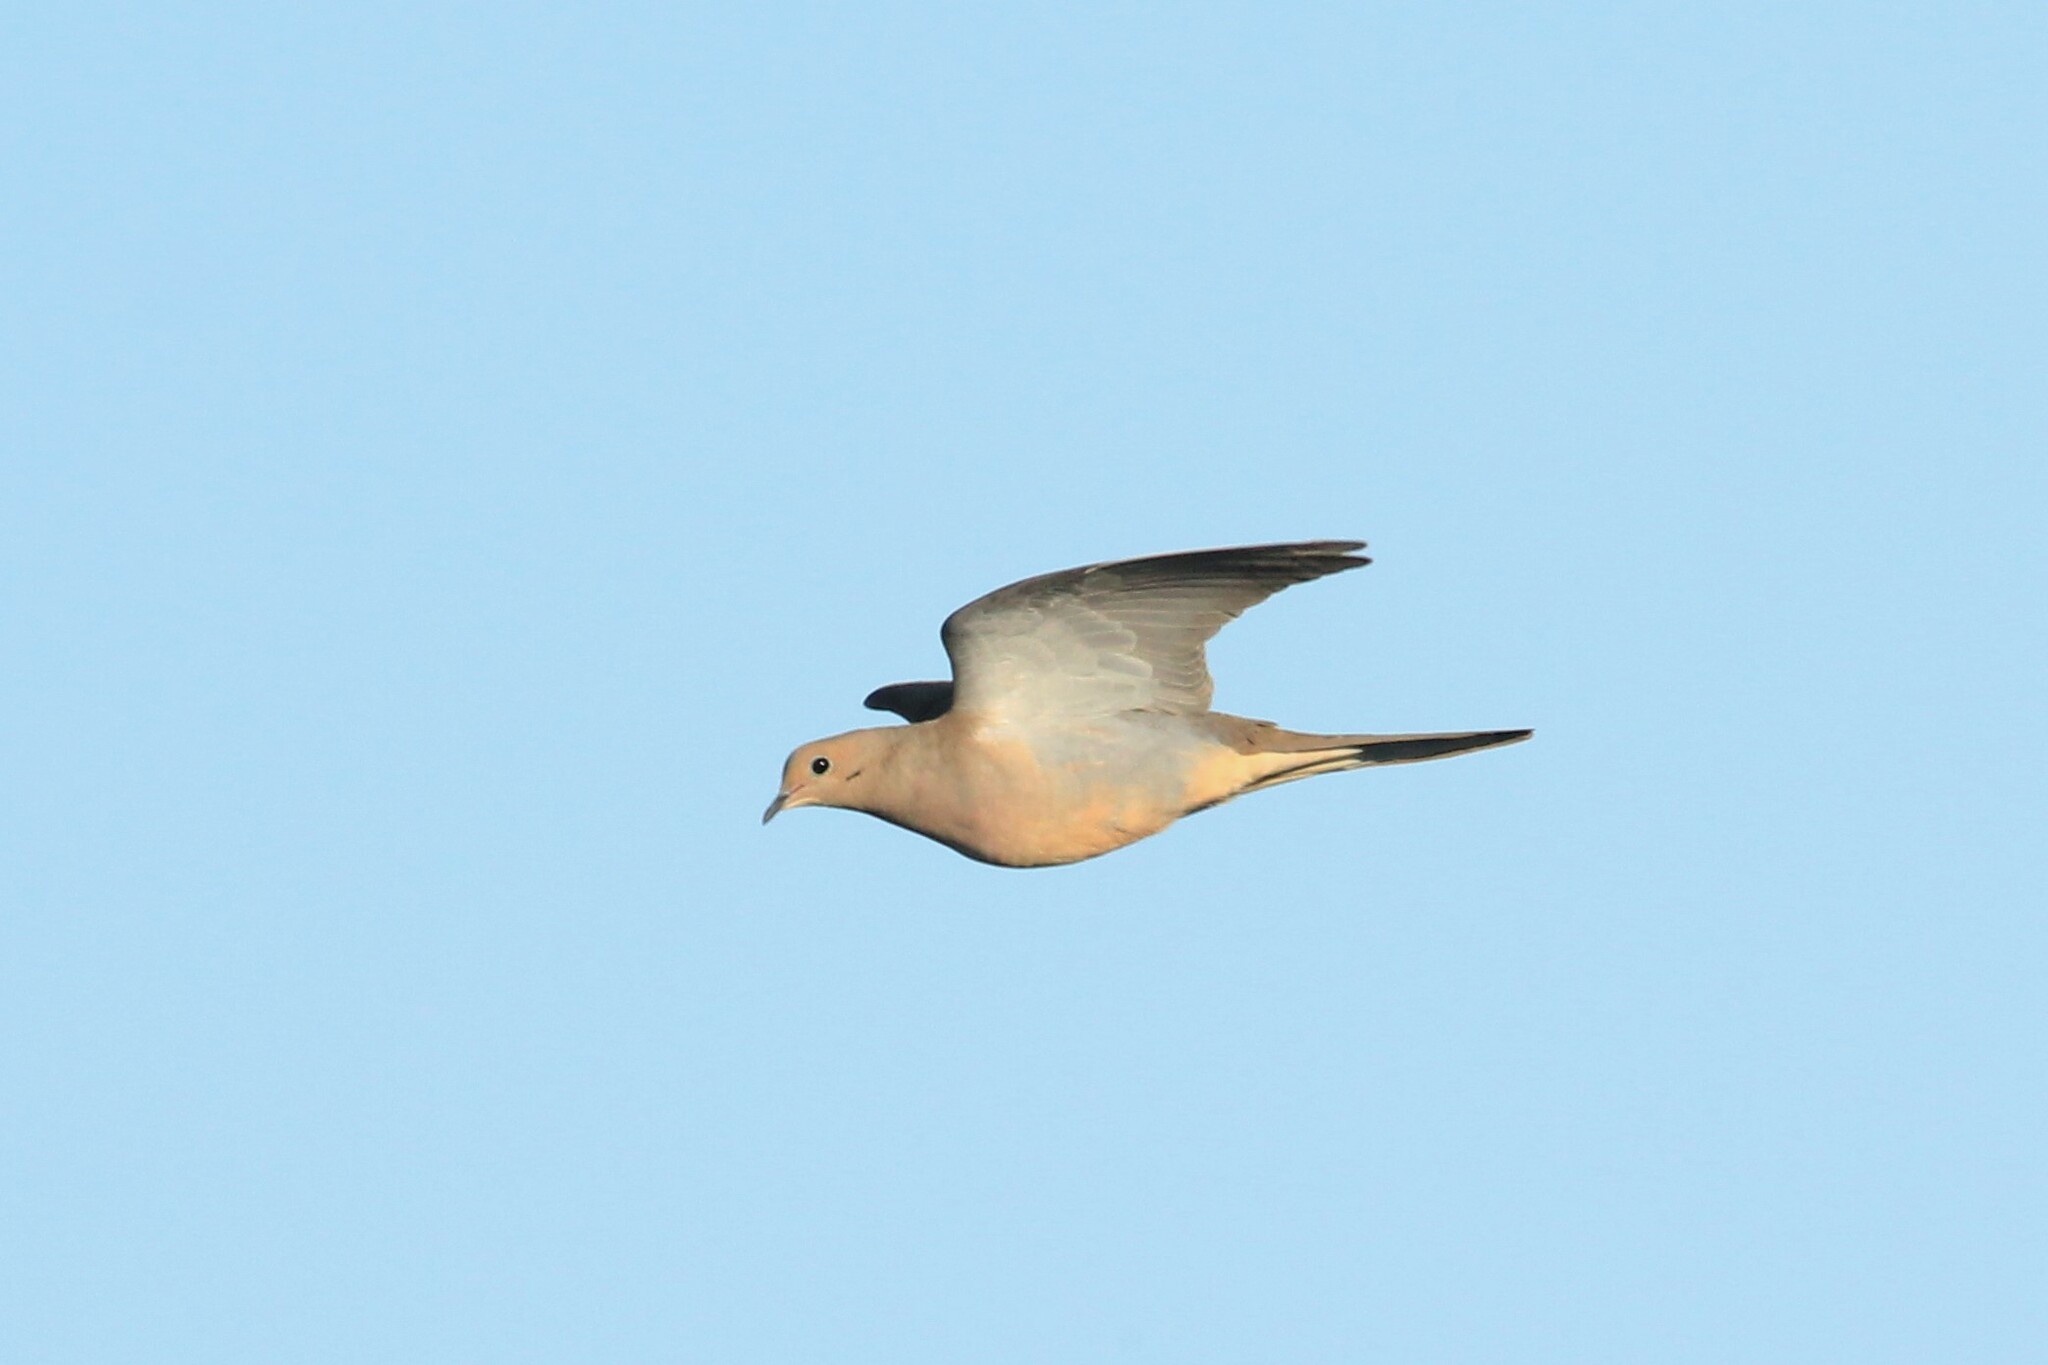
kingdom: Animalia
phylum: Chordata
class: Aves
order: Columbiformes
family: Columbidae
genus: Zenaida
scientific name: Zenaida macroura
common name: Mourning dove
